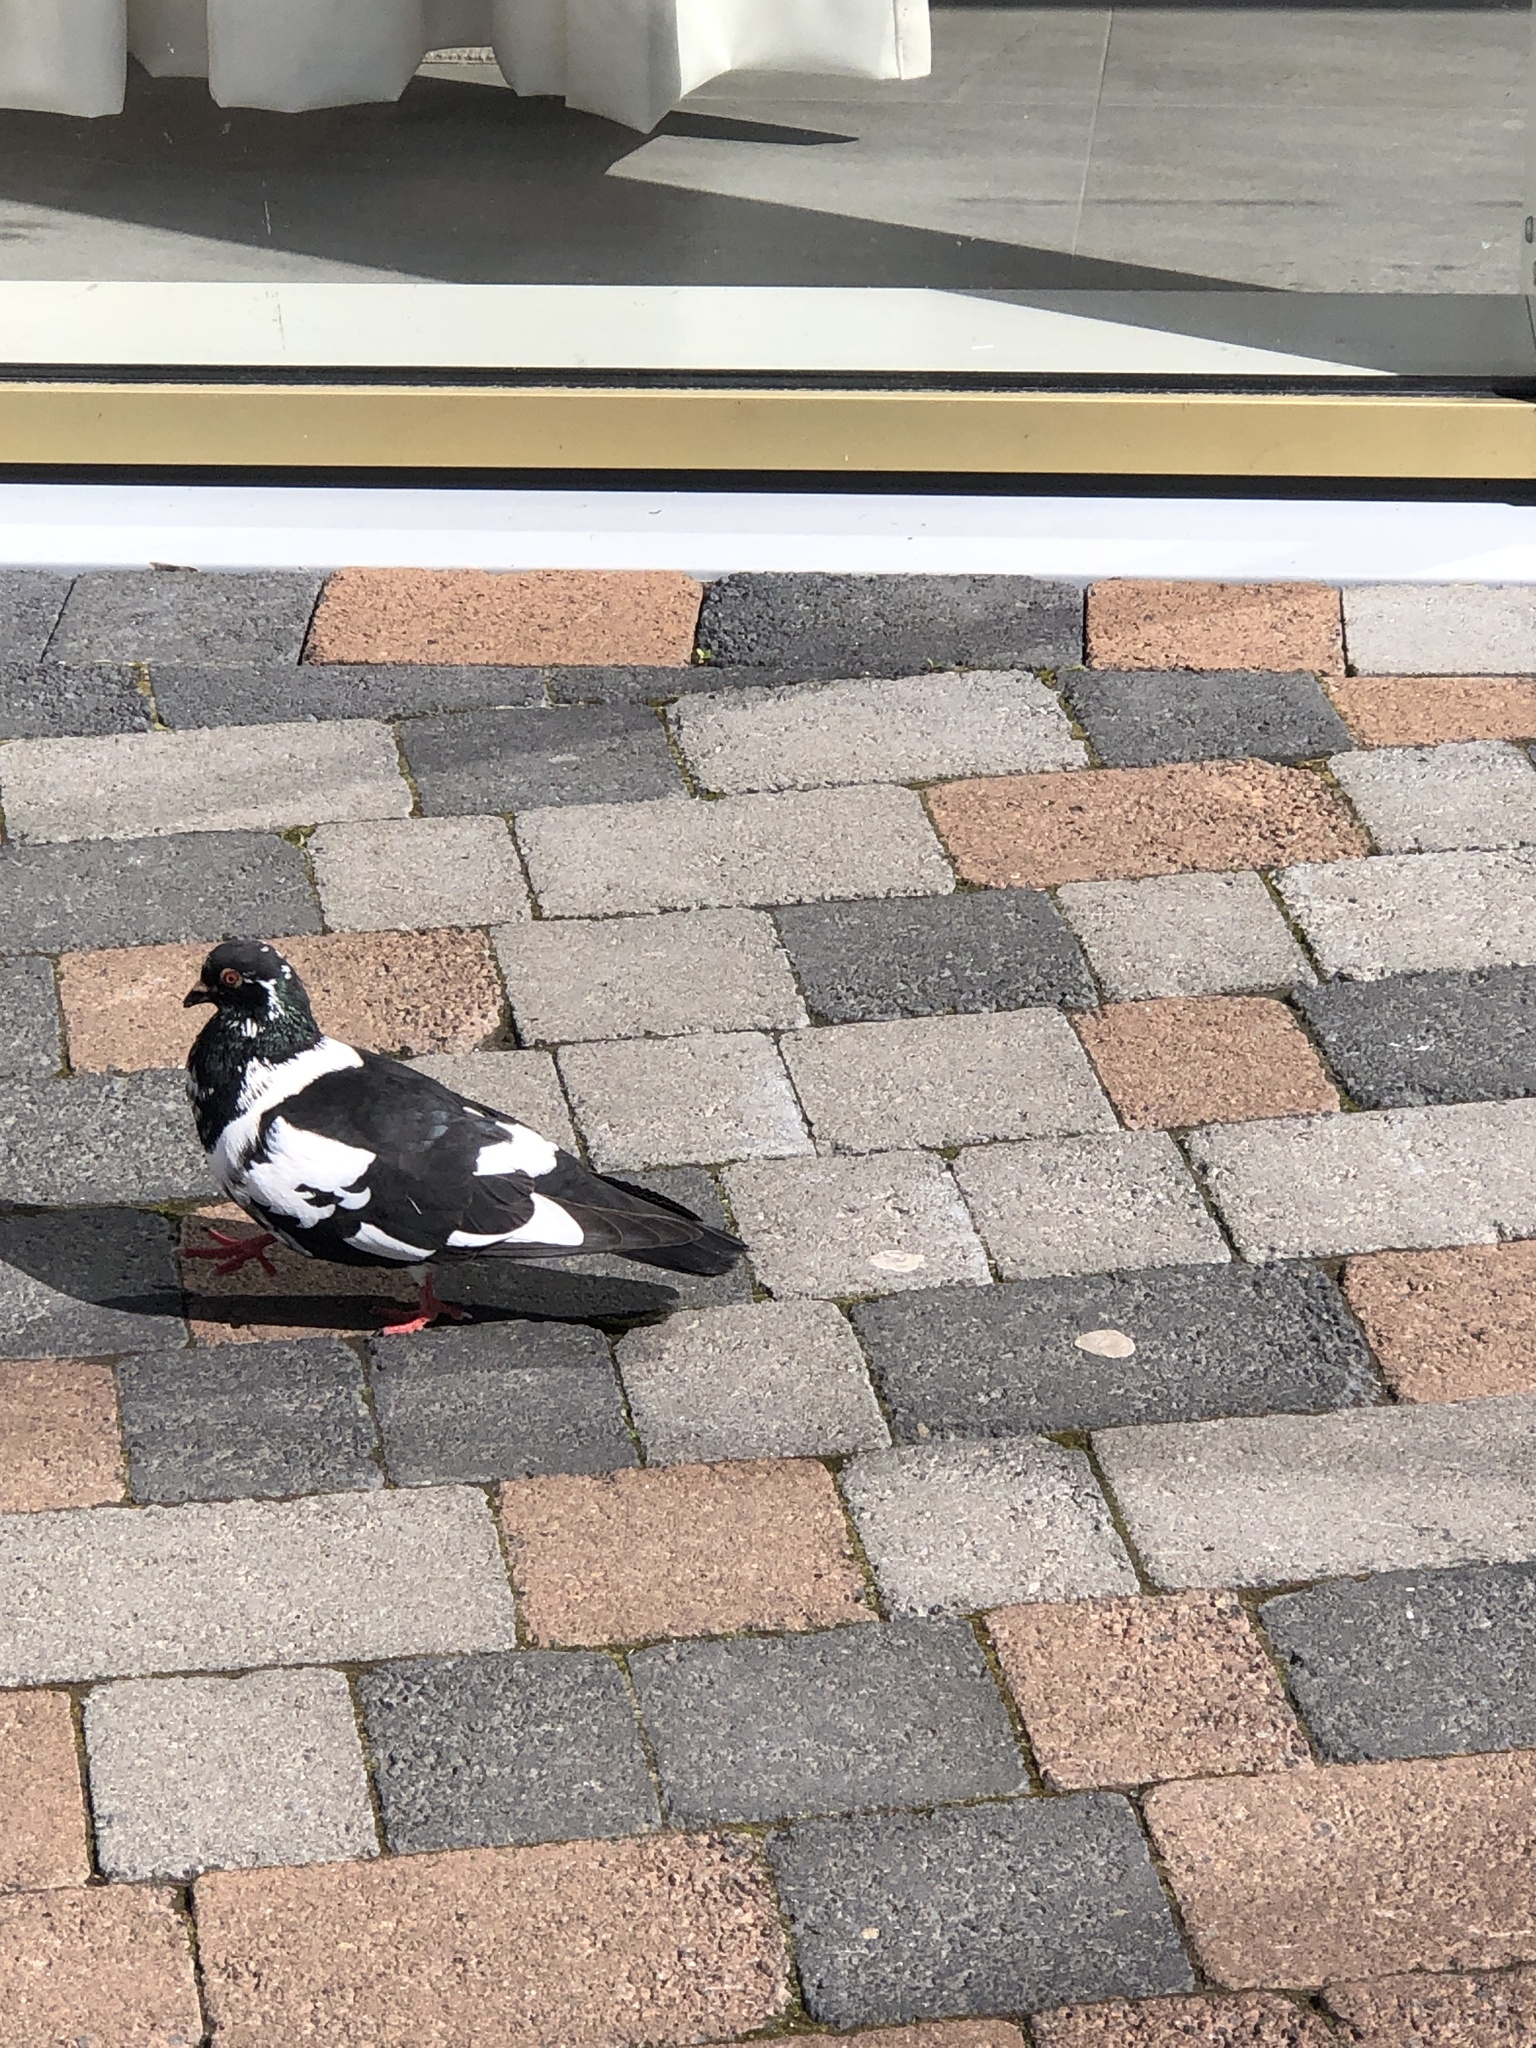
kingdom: Animalia
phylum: Chordata
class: Aves
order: Columbiformes
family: Columbidae
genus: Columba
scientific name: Columba livia
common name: Rock pigeon
